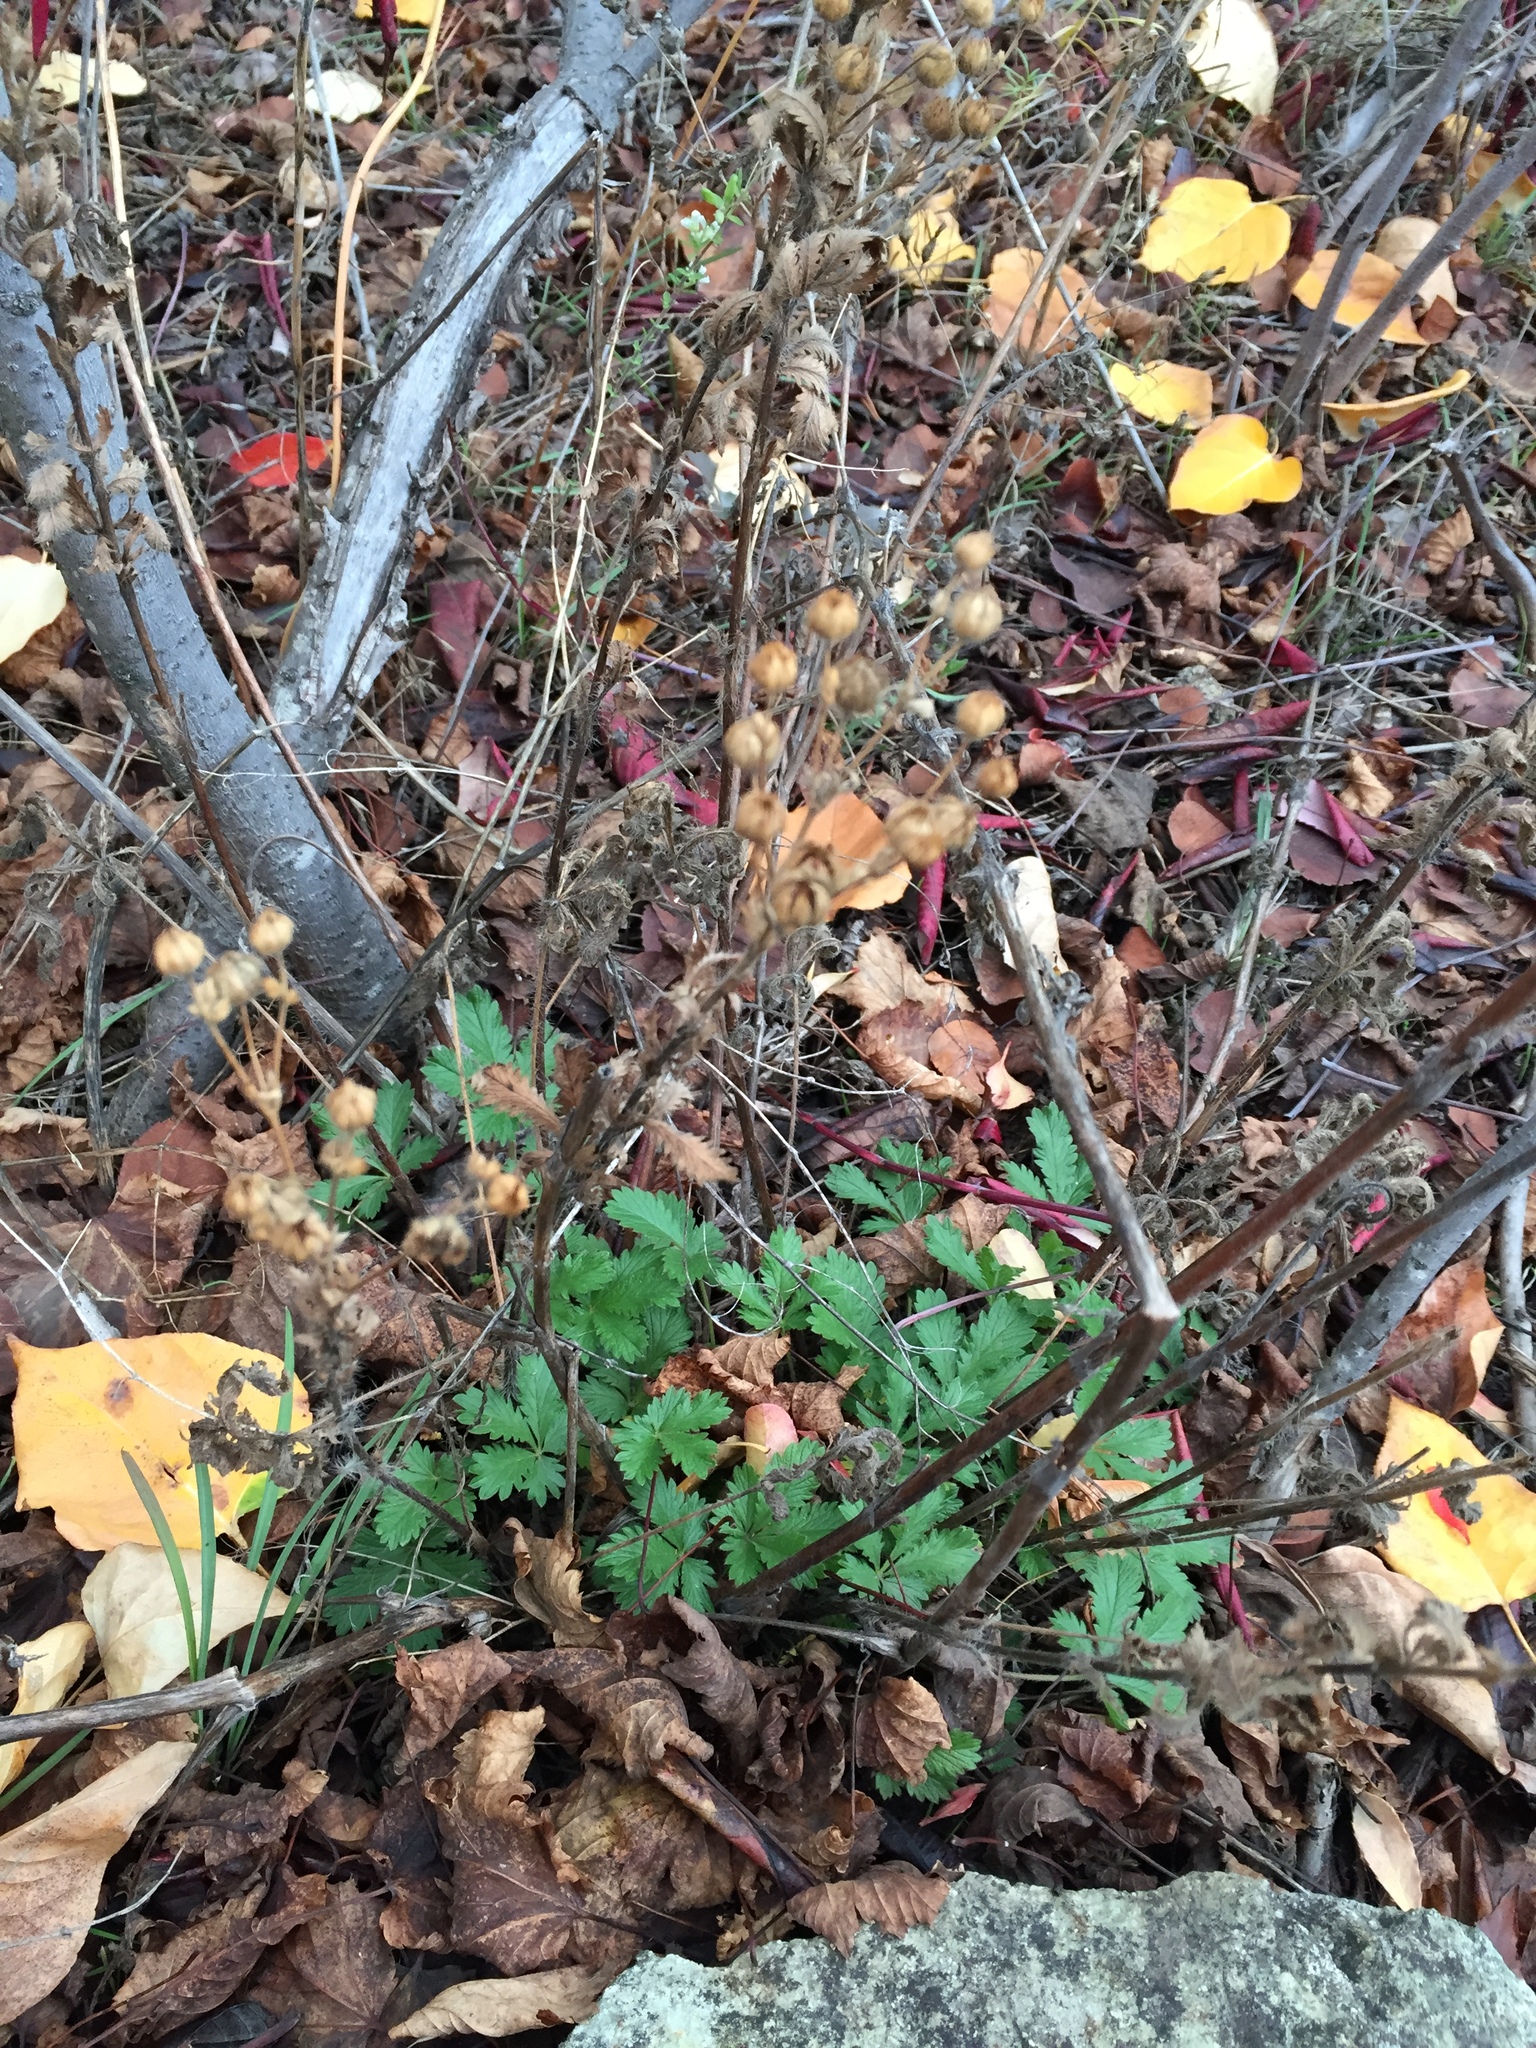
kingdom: Plantae
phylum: Tracheophyta
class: Magnoliopsida
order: Rosales
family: Rosaceae
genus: Potentilla
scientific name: Potentilla recta
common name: Sulphur cinquefoil
